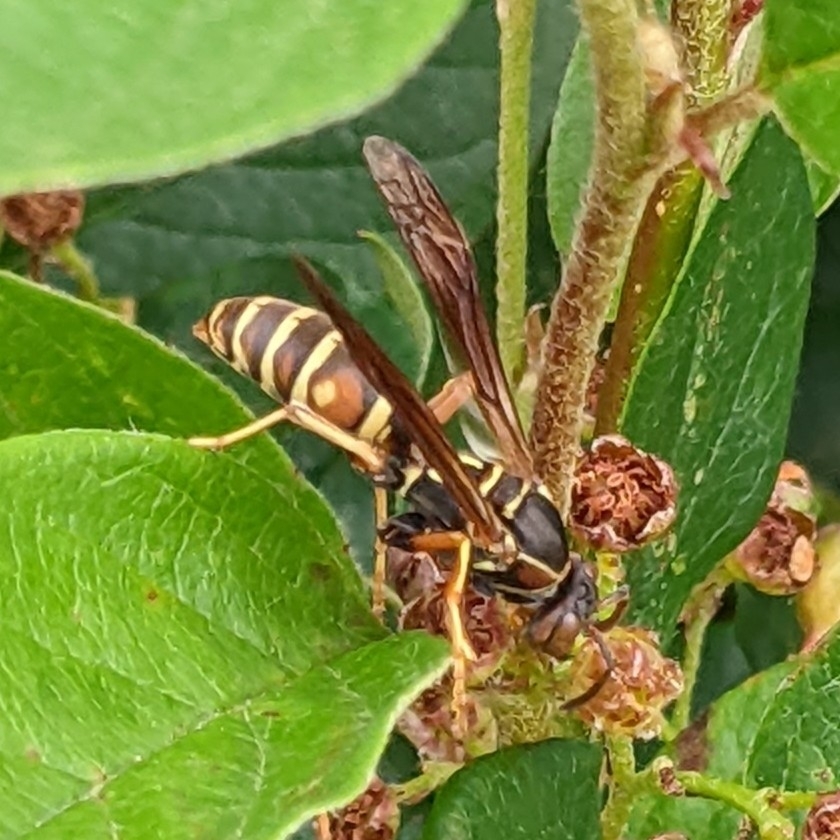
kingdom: Animalia
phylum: Arthropoda
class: Insecta
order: Hymenoptera
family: Eumenidae
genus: Polistes
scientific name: Polistes fuscatus
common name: Dark paper wasp
